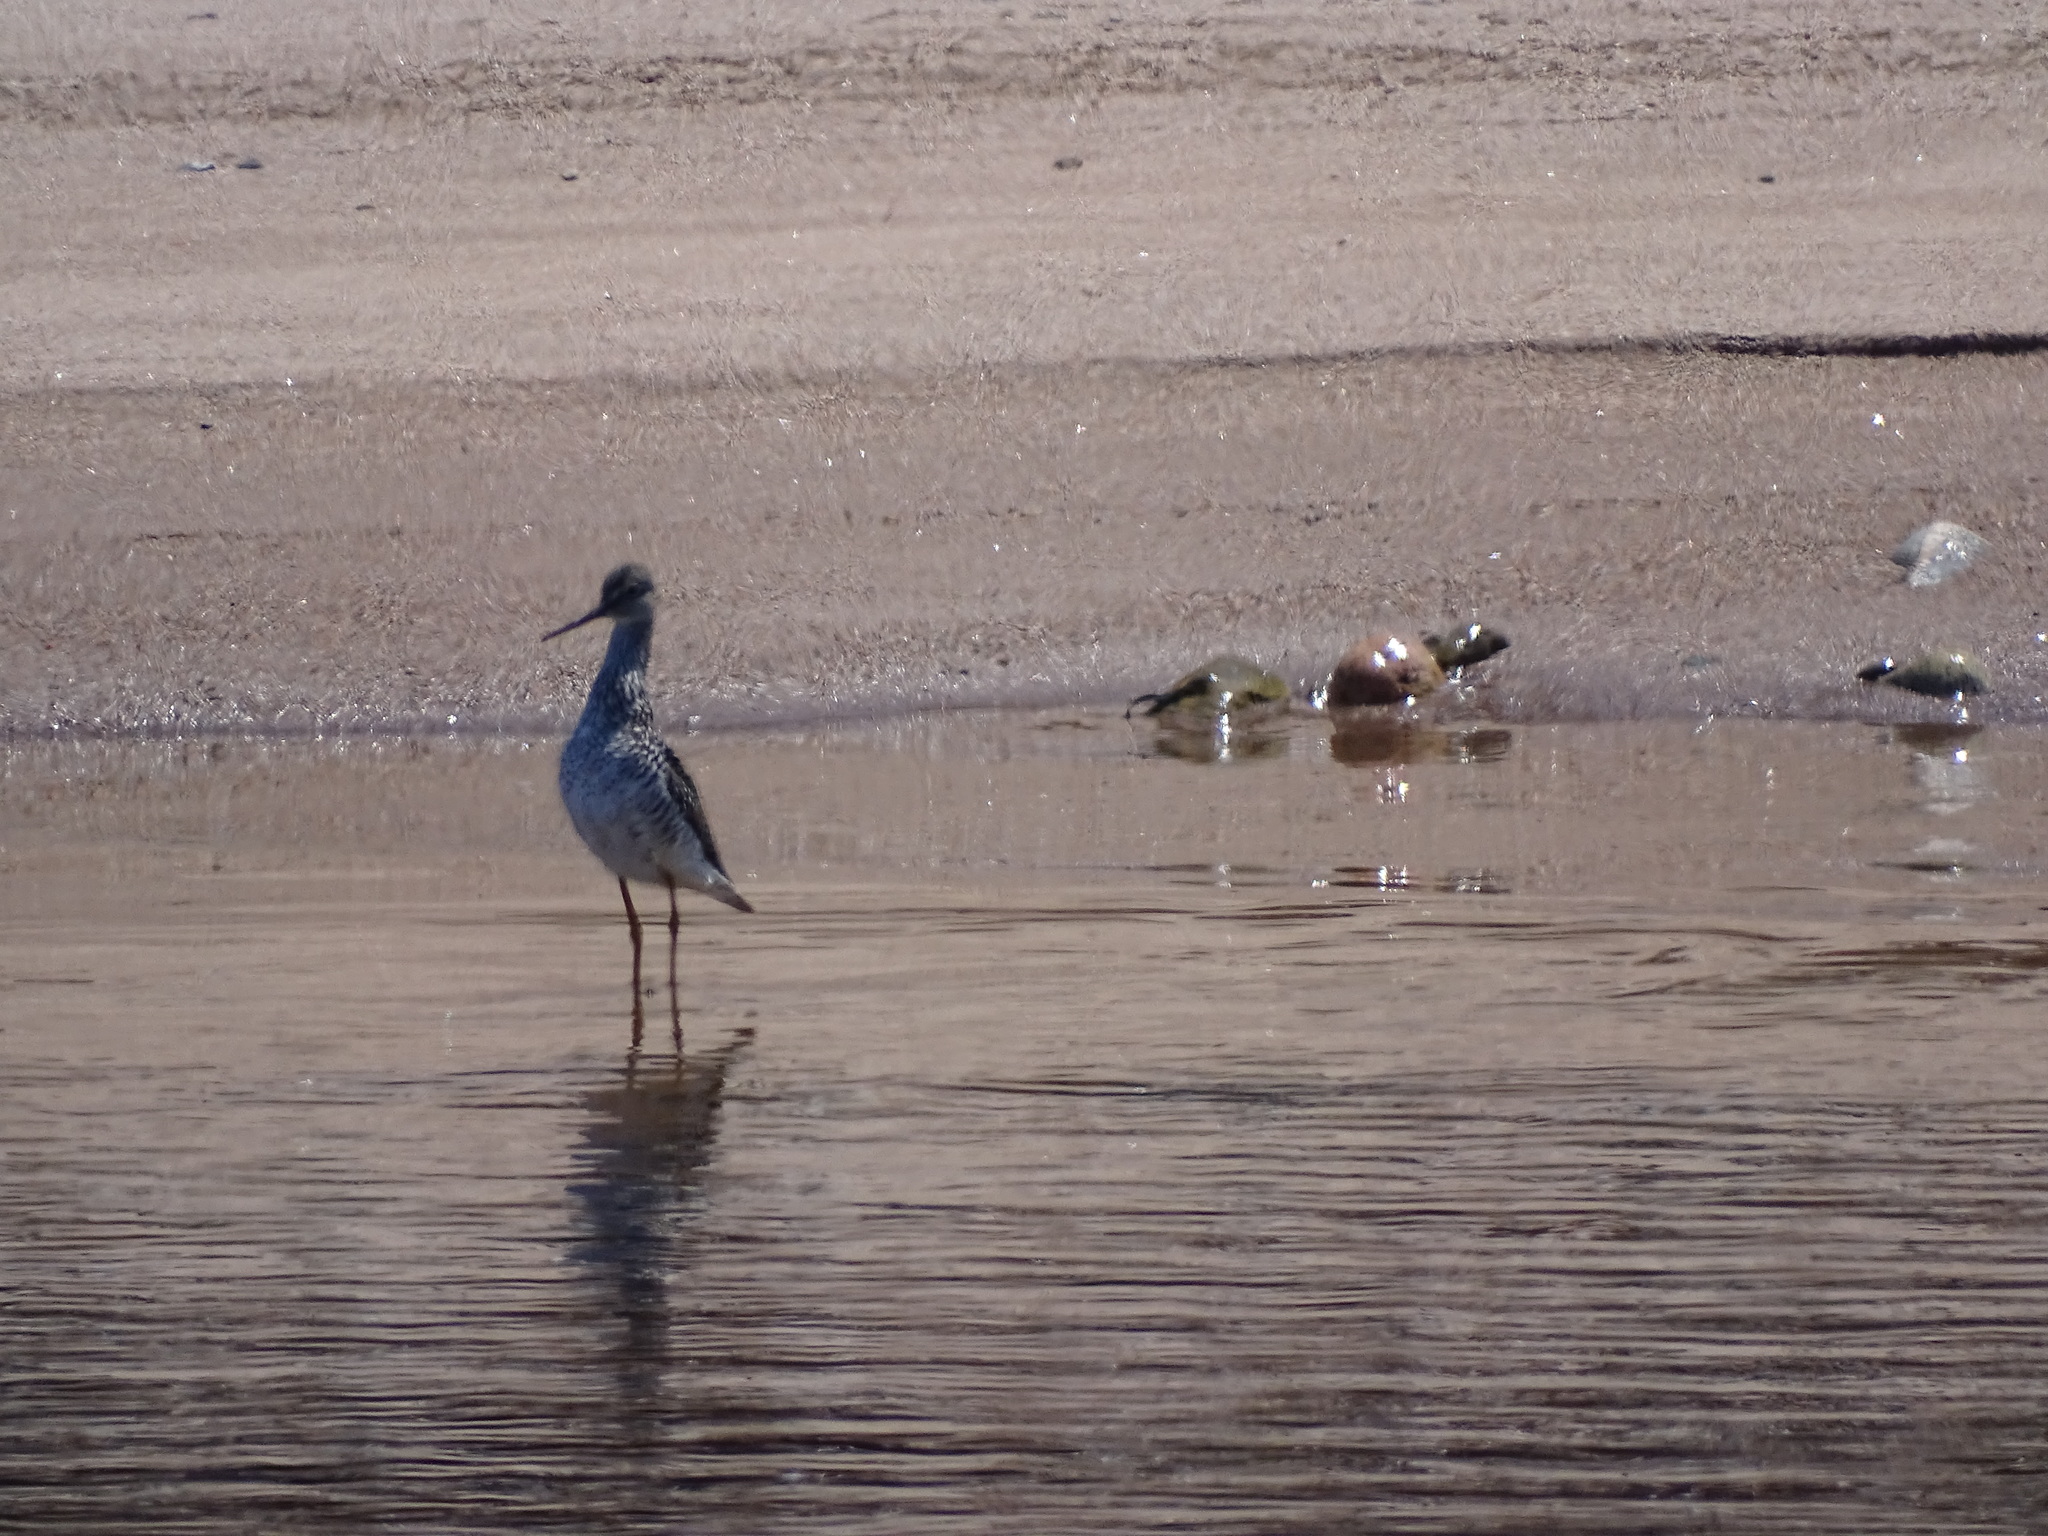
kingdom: Animalia
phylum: Chordata
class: Aves
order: Charadriiformes
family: Scolopacidae
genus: Tringa
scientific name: Tringa melanoleuca
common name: Greater yellowlegs
